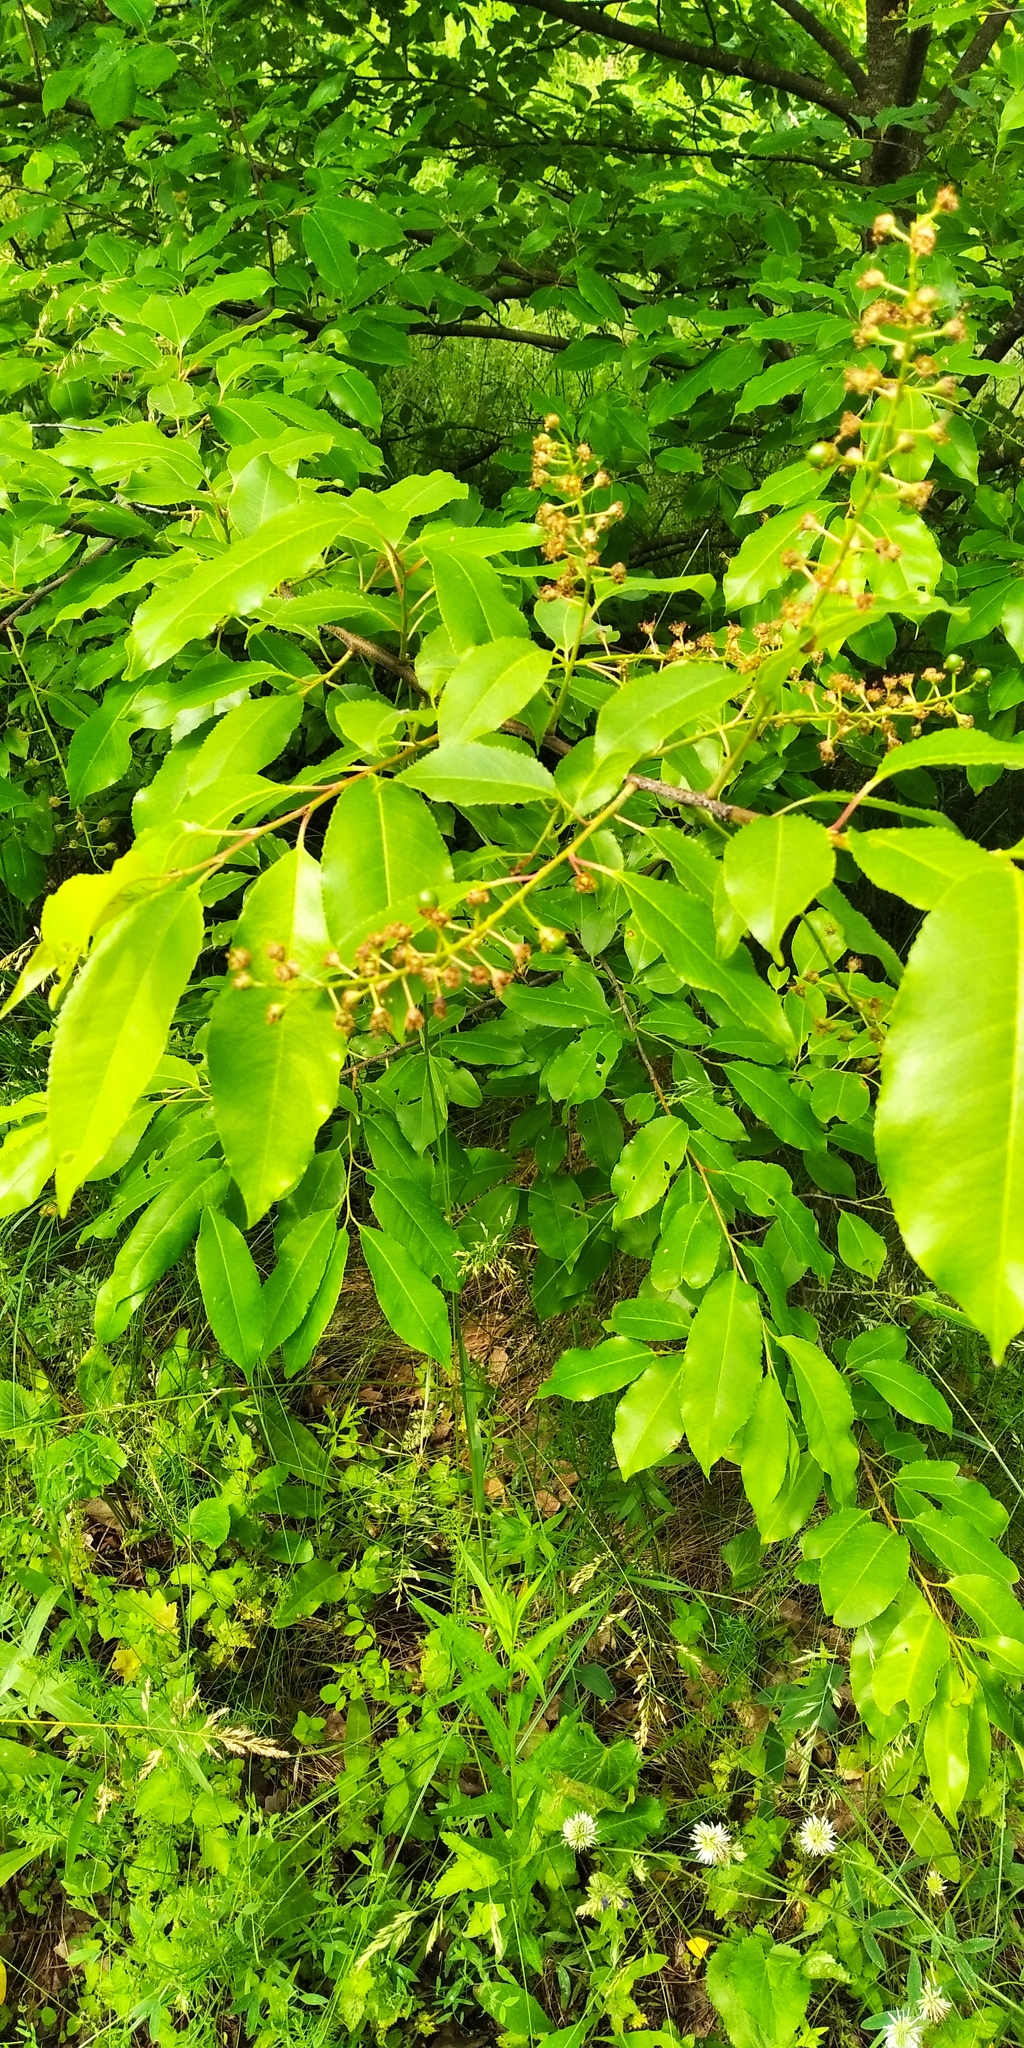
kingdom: Plantae
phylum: Tracheophyta
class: Magnoliopsida
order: Rosales
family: Rosaceae
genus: Prunus
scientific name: Prunus serotina
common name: Black cherry
